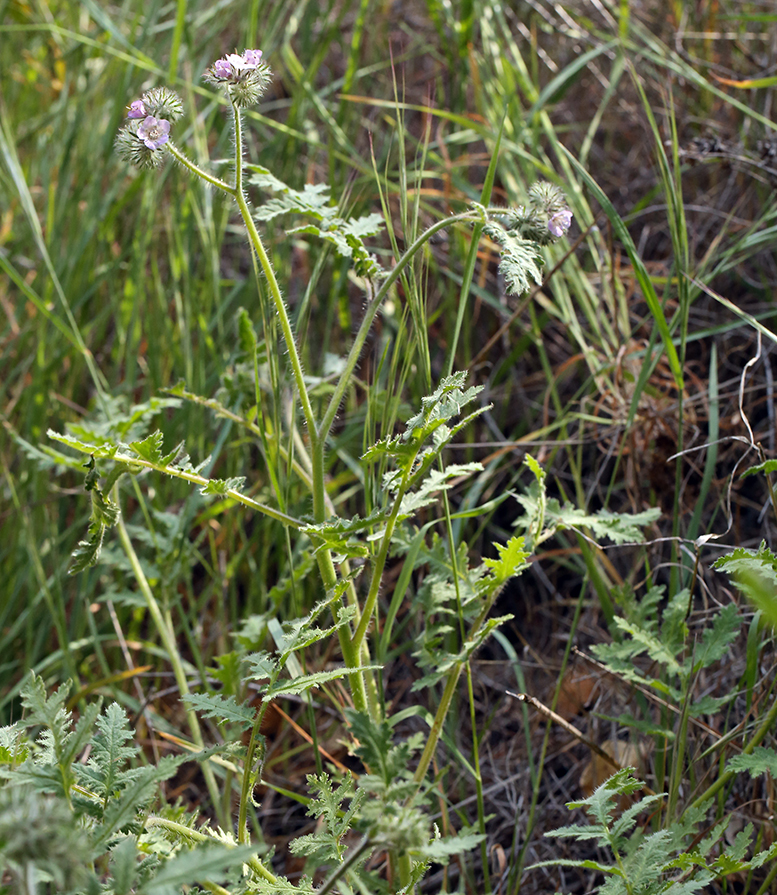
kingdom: Plantae
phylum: Tracheophyta
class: Magnoliopsida
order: Boraginales
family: Hydrophyllaceae
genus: Phacelia
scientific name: Phacelia cicutaria
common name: Caterpillar phacelia
